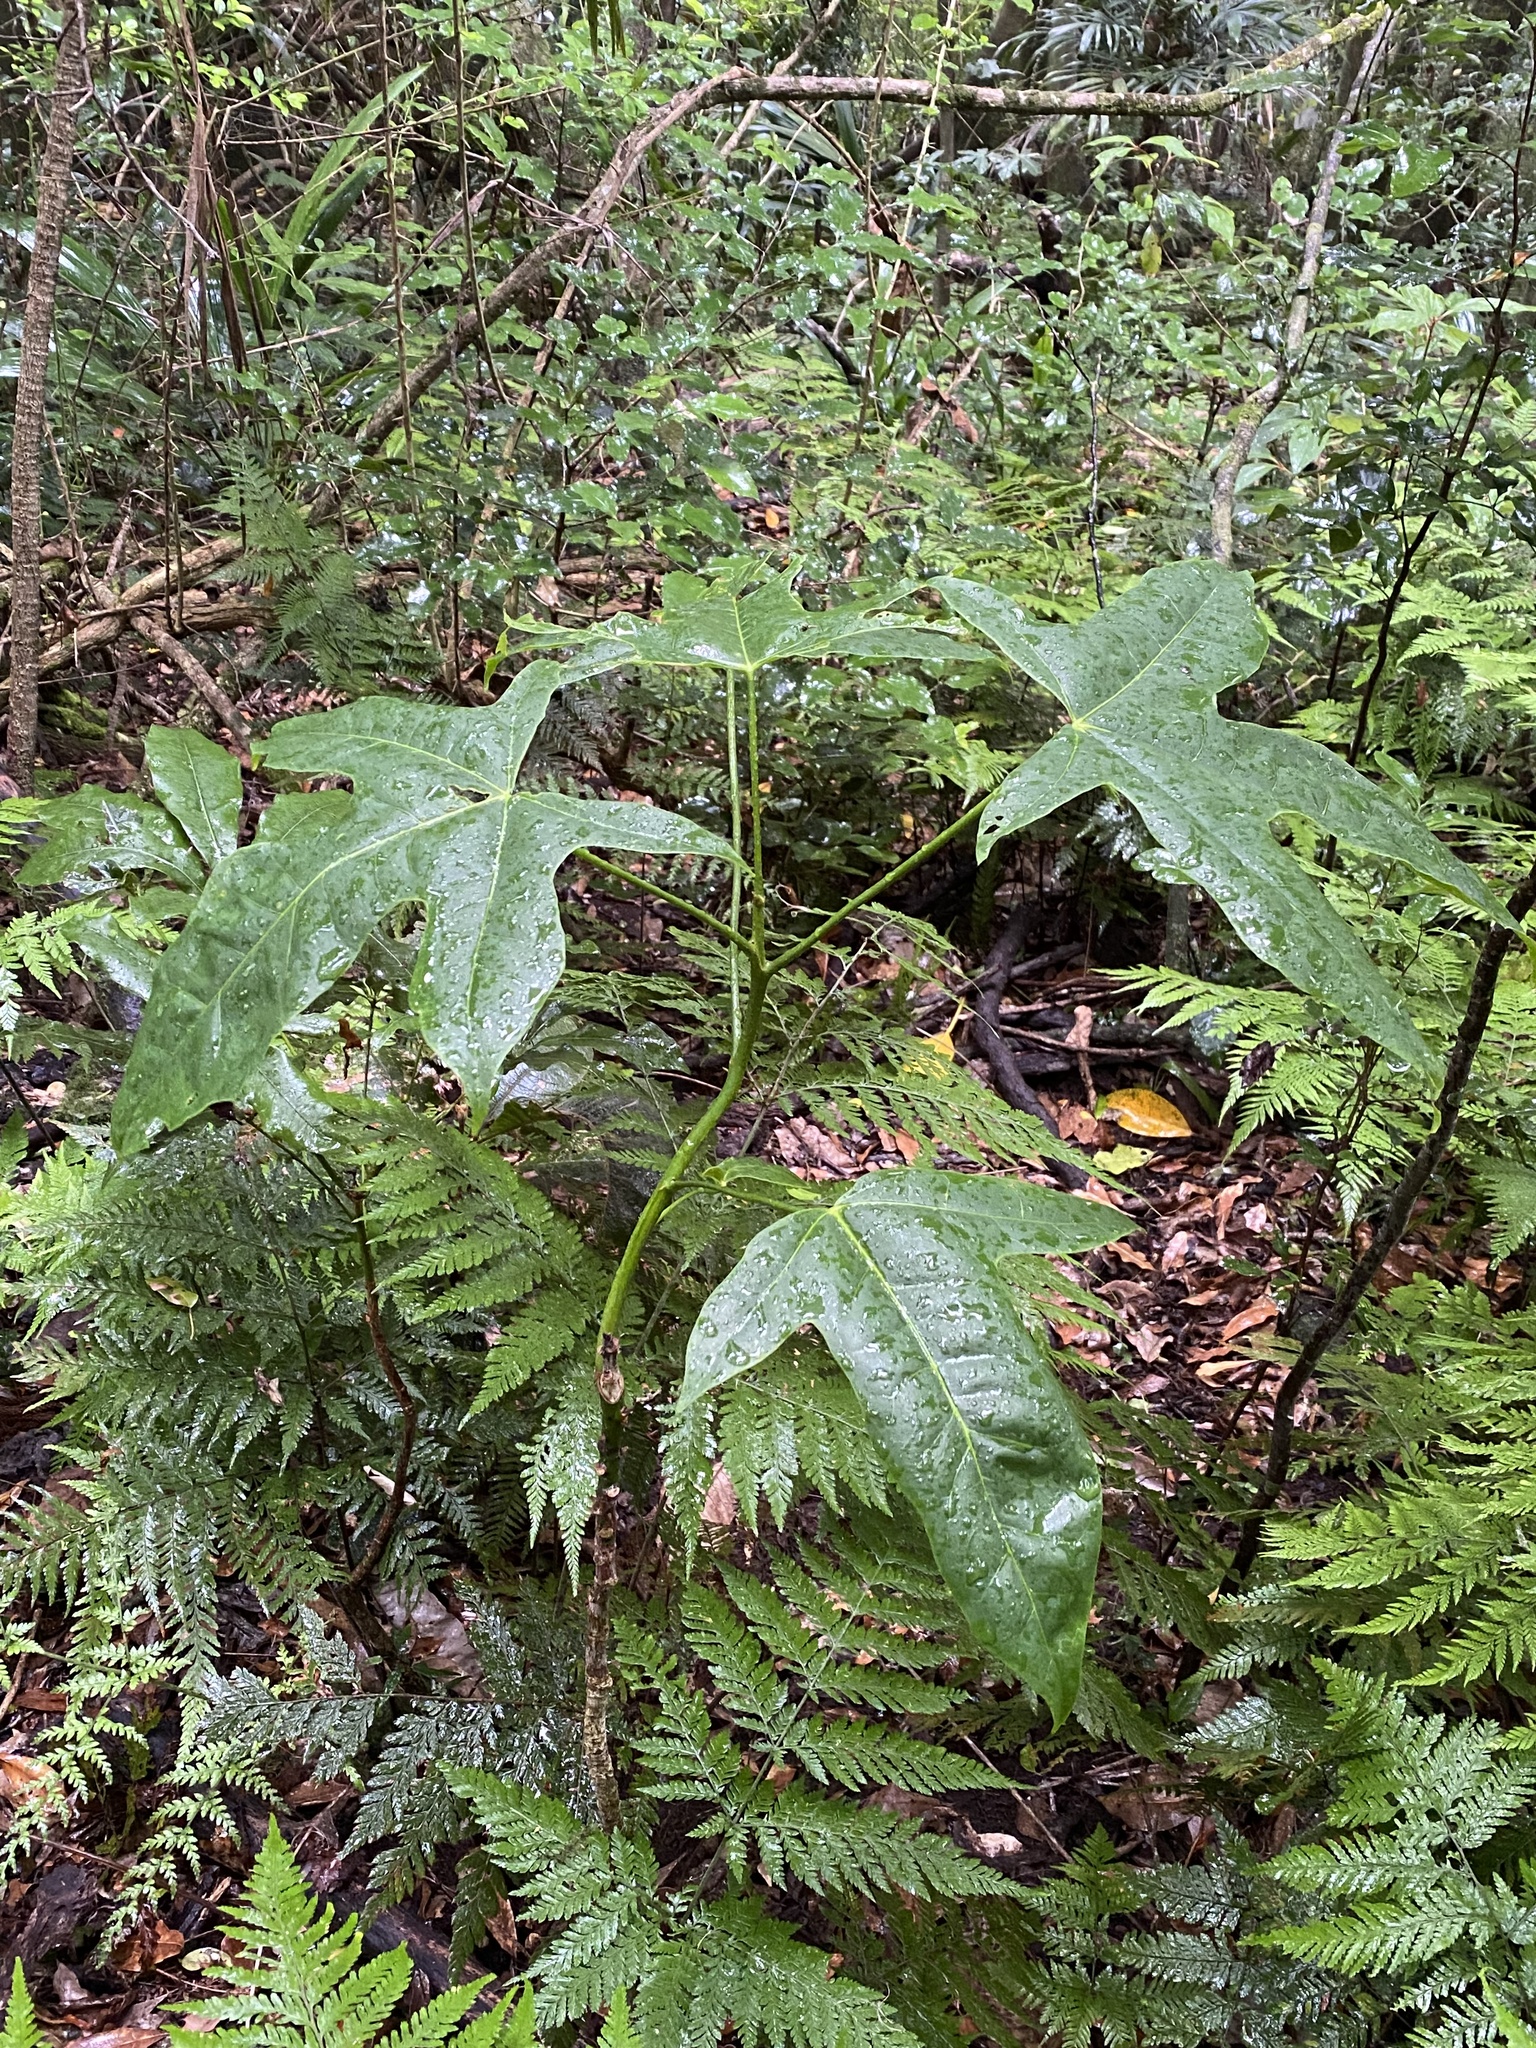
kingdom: Plantae
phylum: Tracheophyta
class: Magnoliopsida
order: Malvales
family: Malvaceae
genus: Brachychiton
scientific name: Brachychiton acerifolius
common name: Illawarra flame tree
